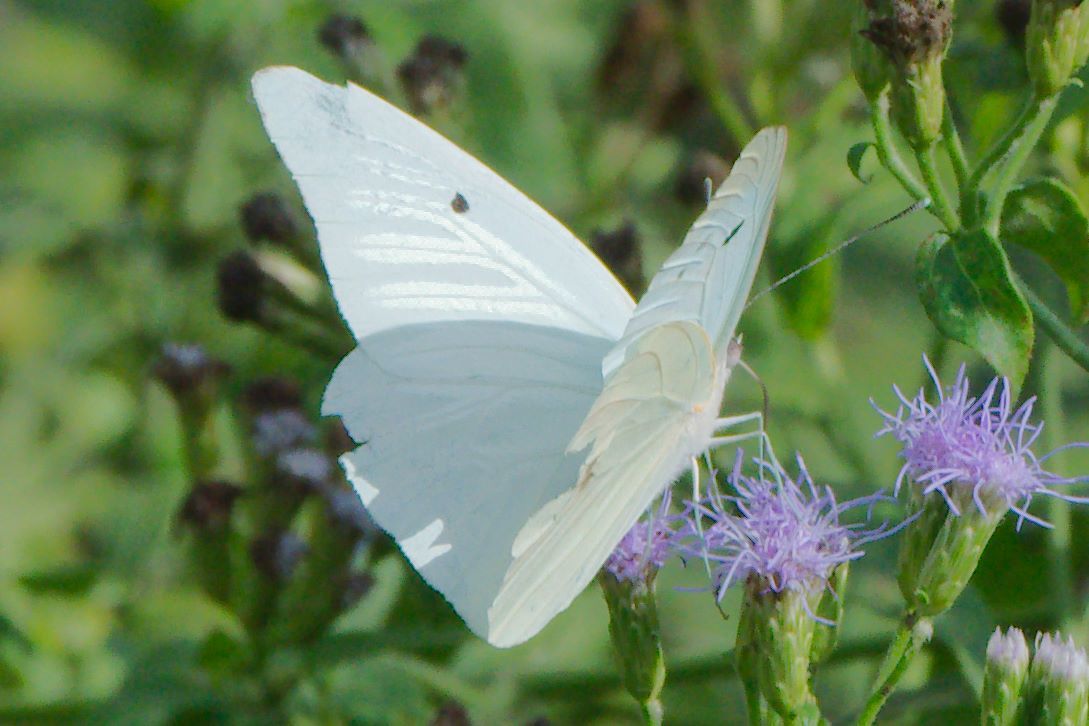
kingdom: Animalia
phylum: Arthropoda
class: Insecta
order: Lepidoptera
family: Pieridae
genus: Ganyra
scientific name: Ganyra josephina
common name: Giant white
